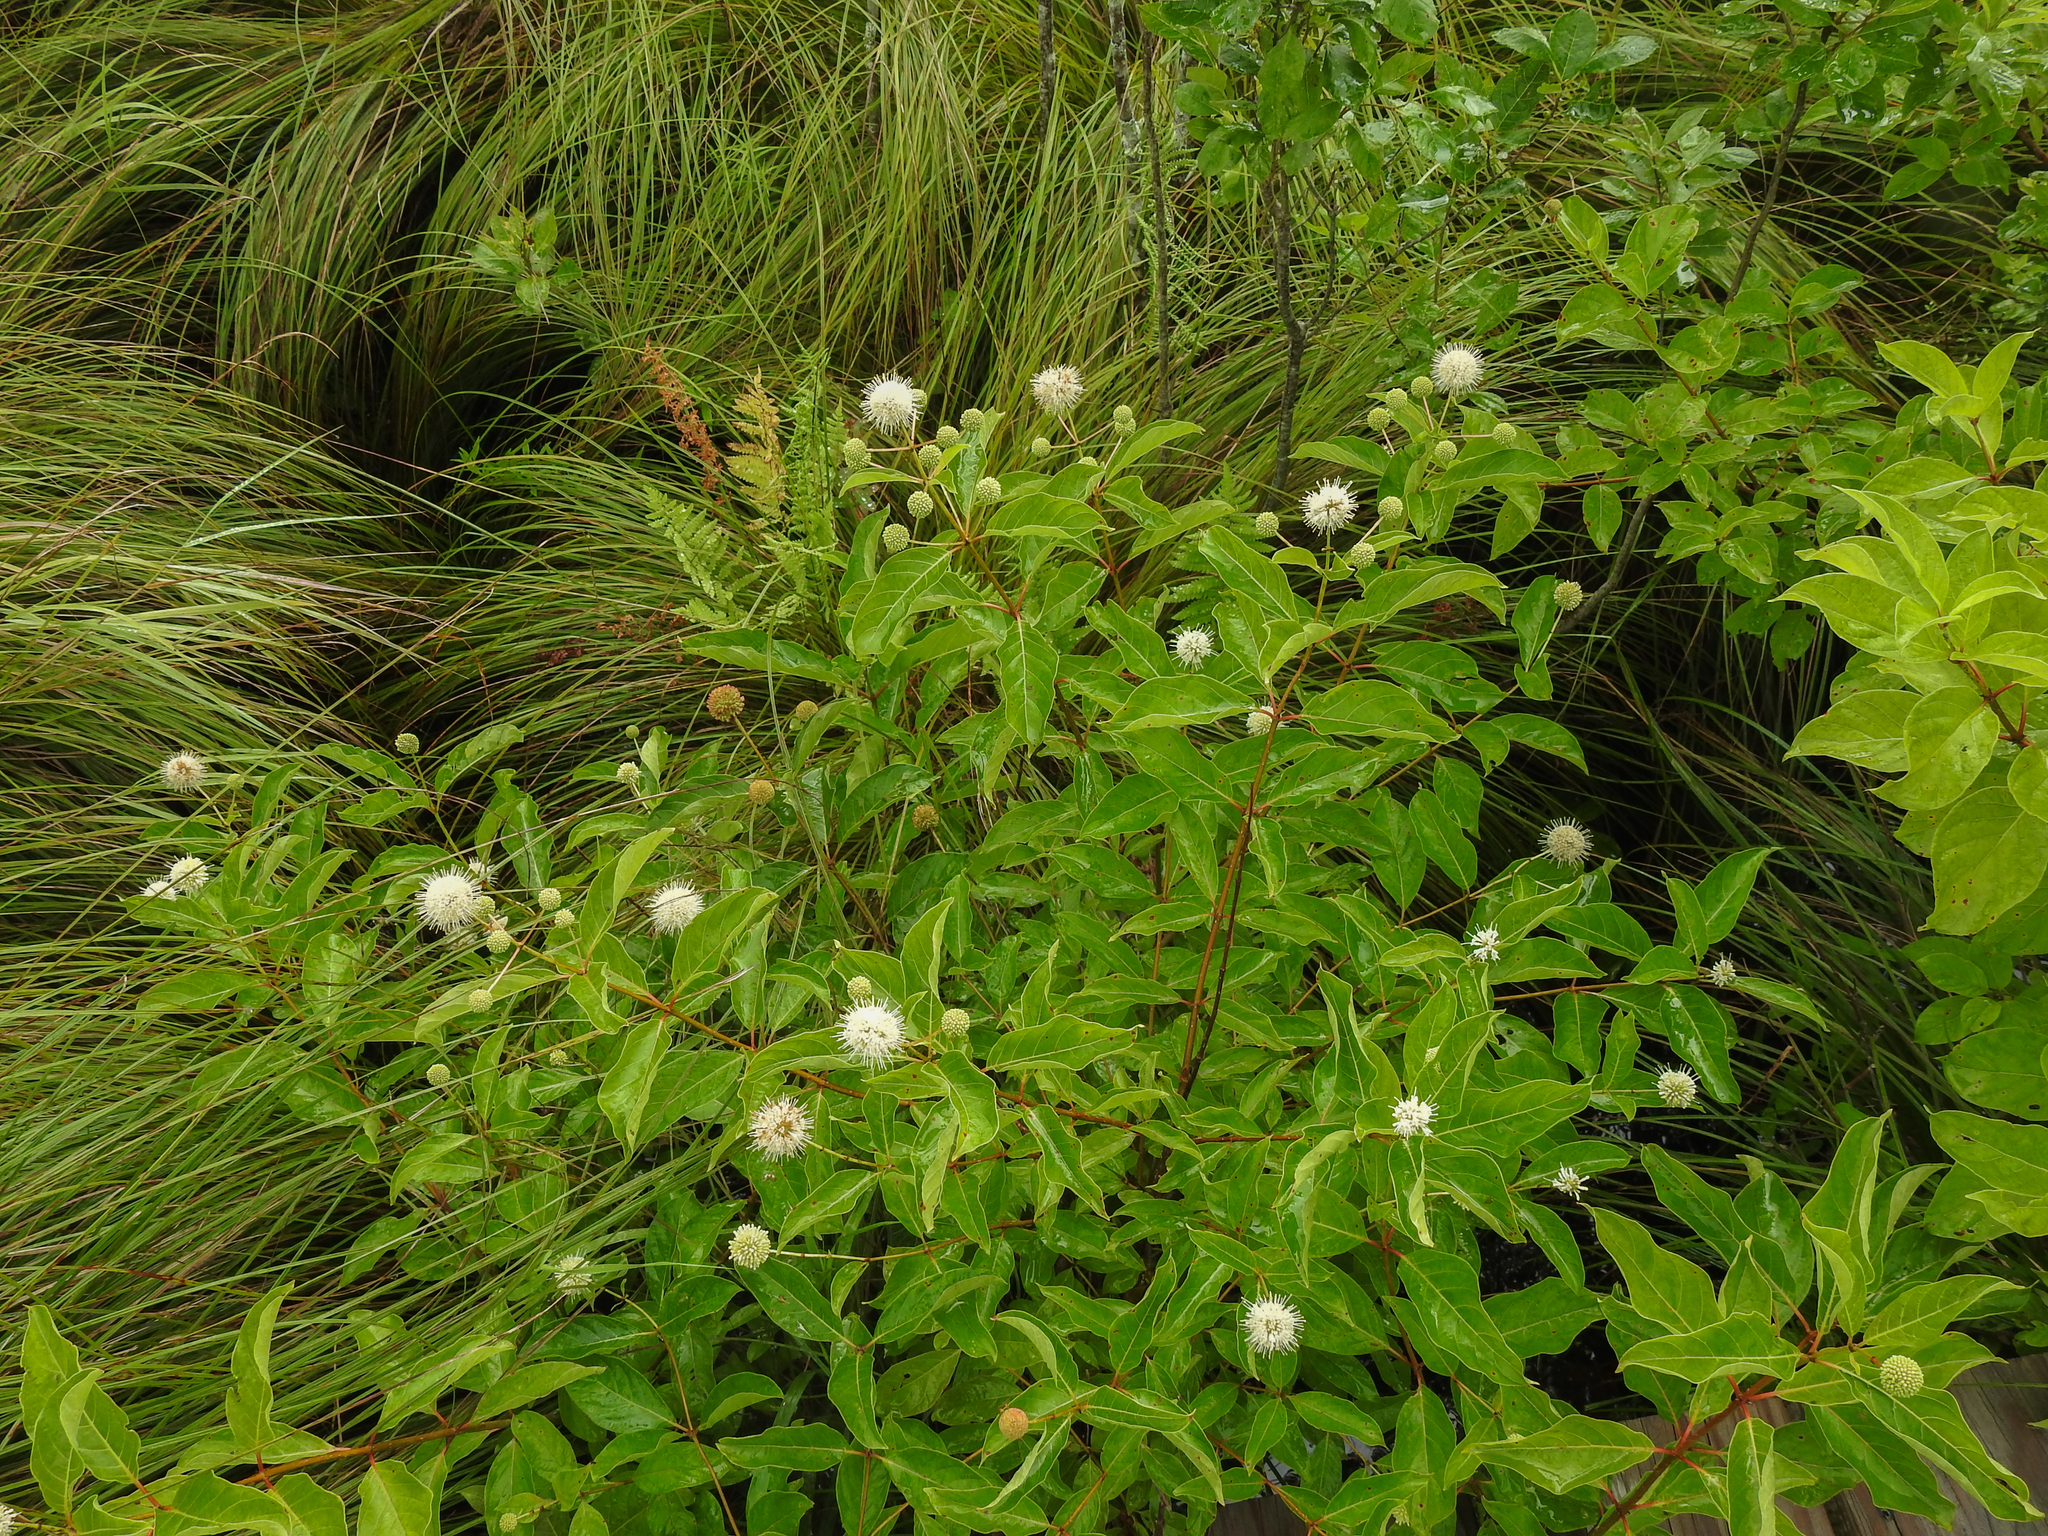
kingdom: Plantae
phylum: Tracheophyta
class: Magnoliopsida
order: Gentianales
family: Rubiaceae
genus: Cephalanthus
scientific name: Cephalanthus occidentalis
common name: Button-willow
